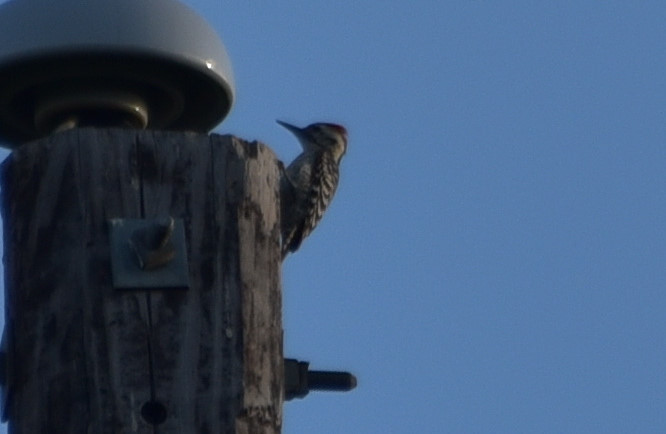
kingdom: Animalia
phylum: Chordata
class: Aves
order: Piciformes
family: Picidae
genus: Dryobates
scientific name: Dryobates scalaris
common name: Ladder-backed woodpecker
